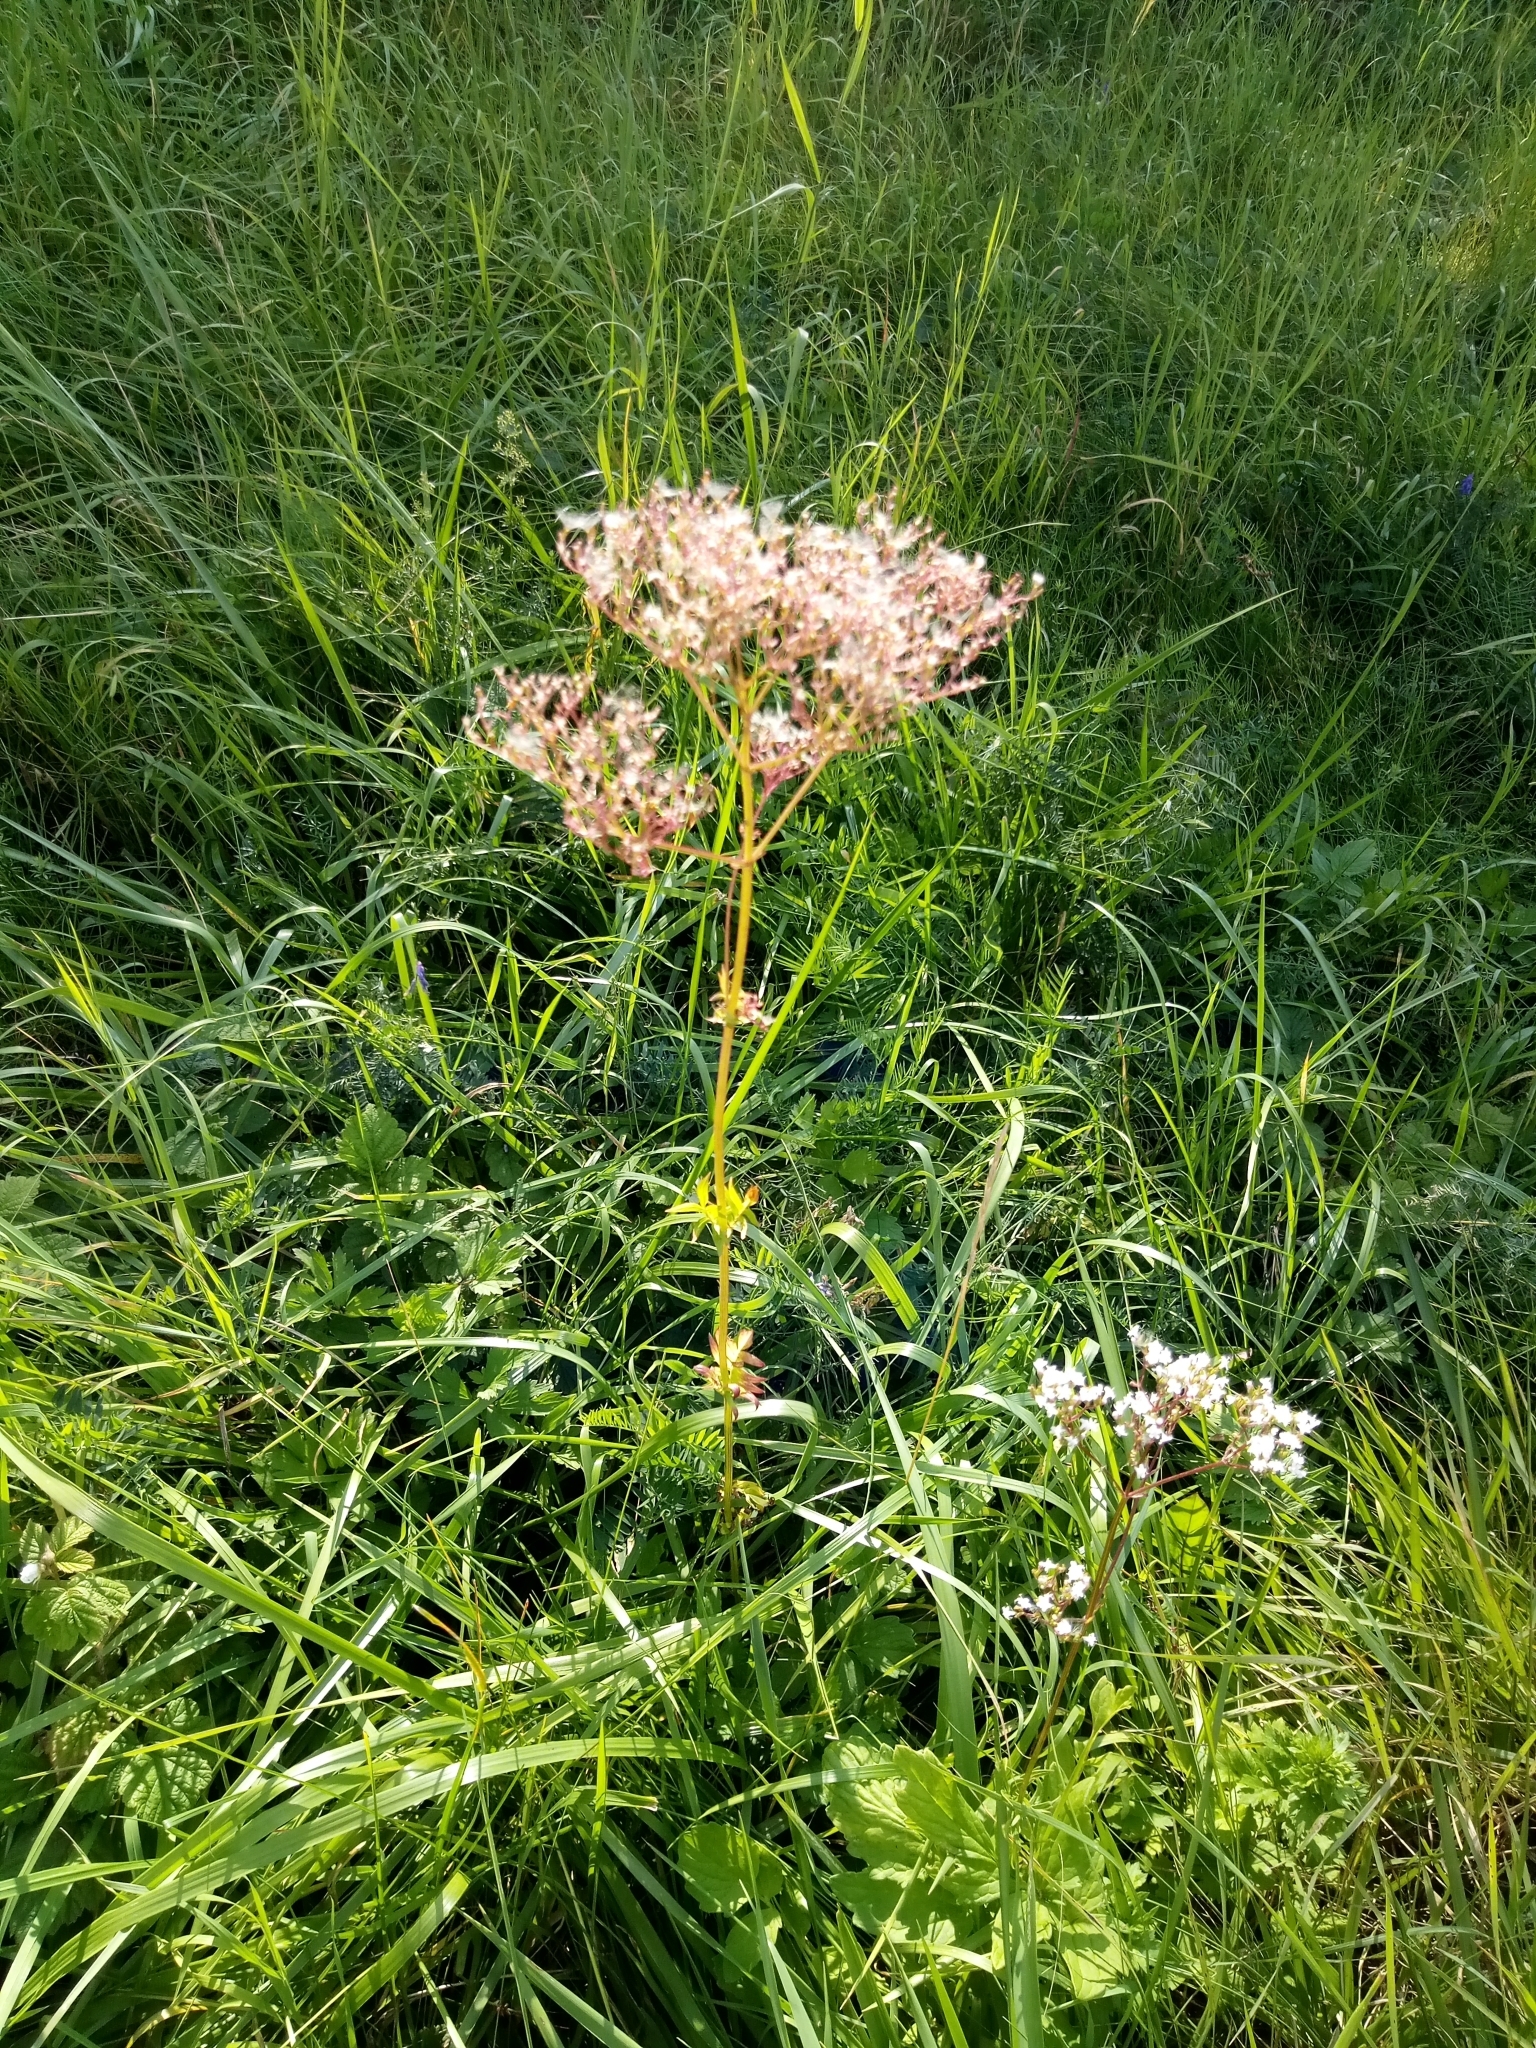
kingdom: Plantae
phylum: Tracheophyta
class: Magnoliopsida
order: Dipsacales
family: Caprifoliaceae
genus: Valeriana
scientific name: Valeriana officinalis
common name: Common valerian
